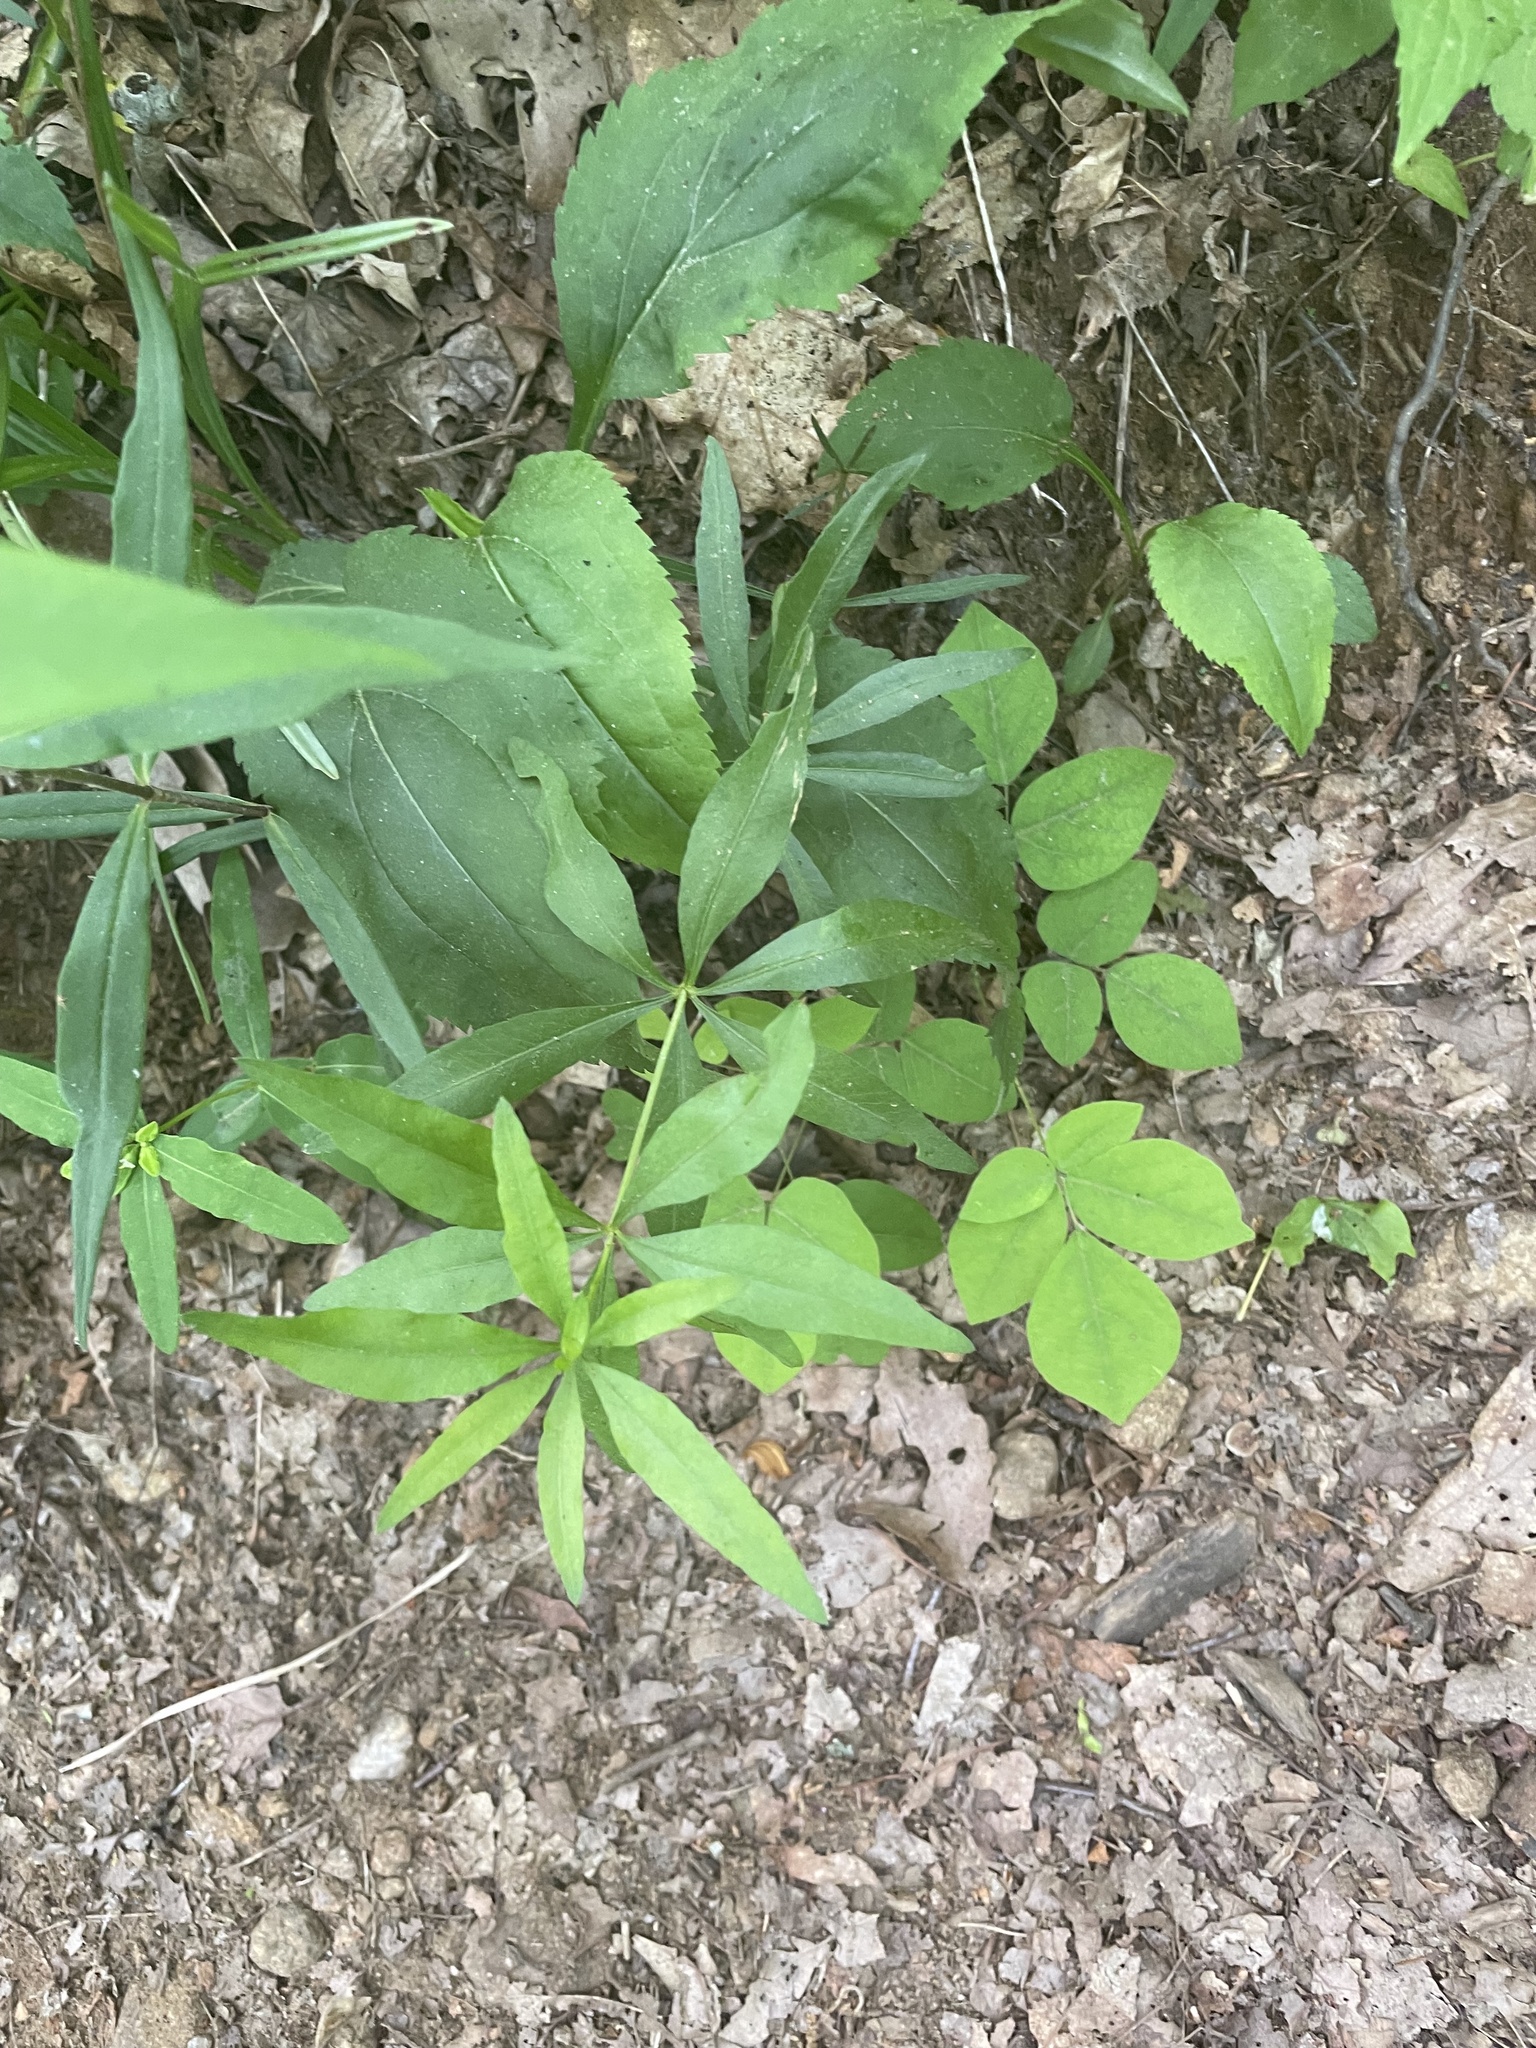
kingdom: Plantae
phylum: Tracheophyta
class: Magnoliopsida
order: Asterales
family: Asteraceae
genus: Coreopsis
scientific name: Coreopsis major
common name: Forest tickseed
